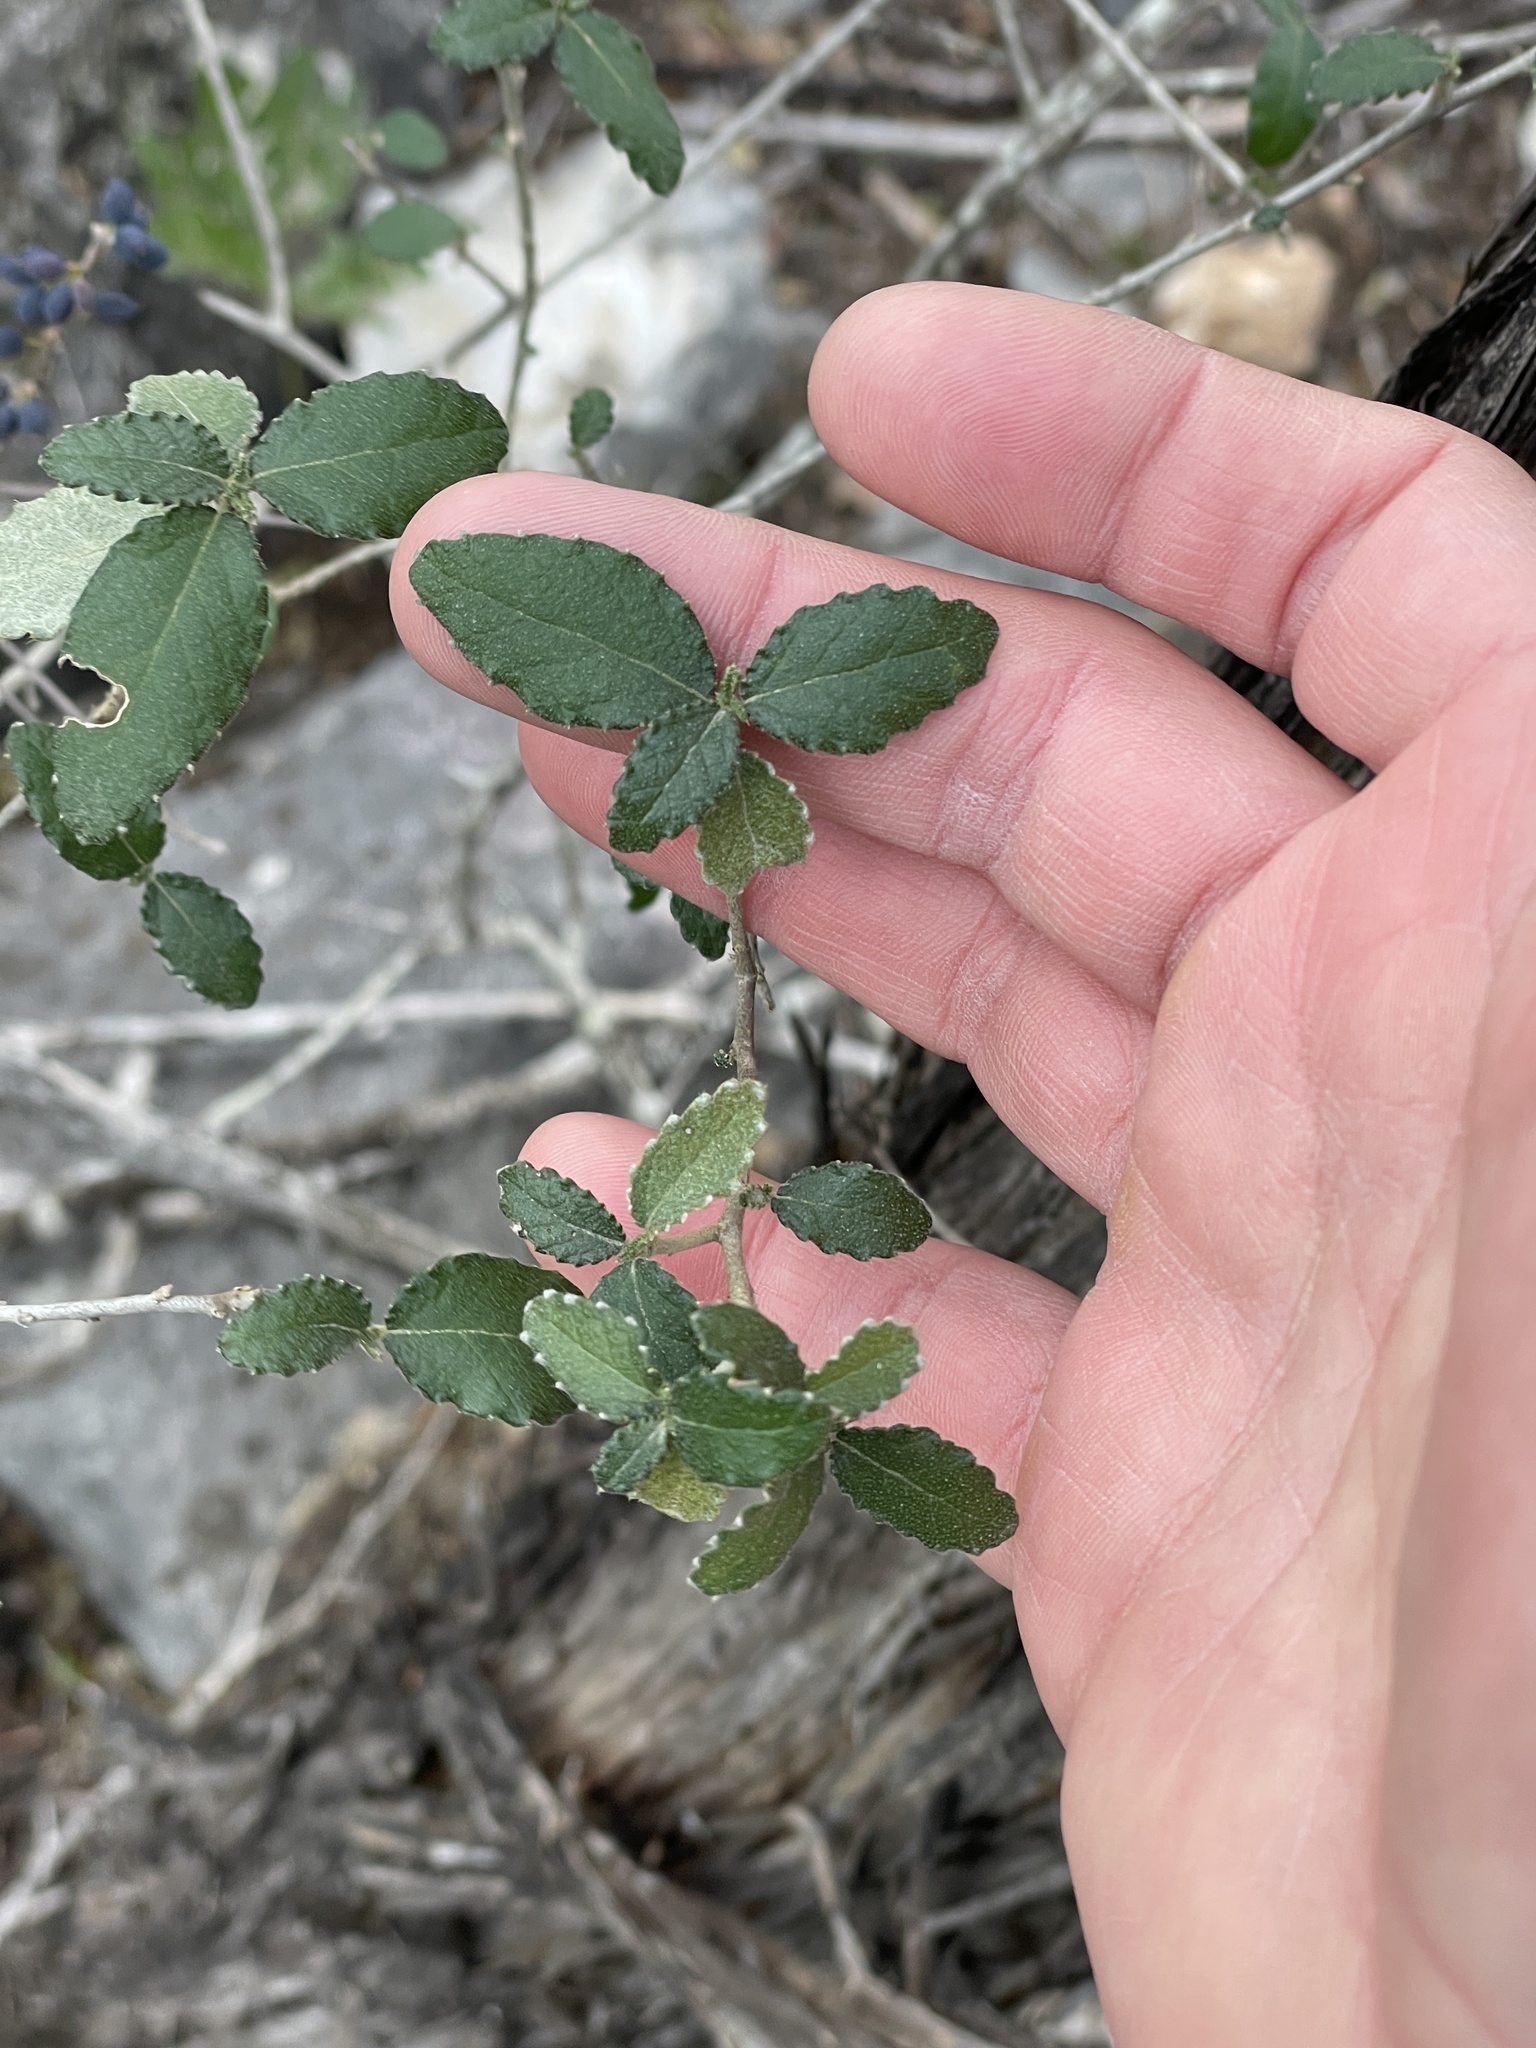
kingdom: Plantae
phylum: Tracheophyta
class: Magnoliopsida
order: Malpighiales
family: Euphorbiaceae
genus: Bernardia
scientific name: Bernardia myricifolia
